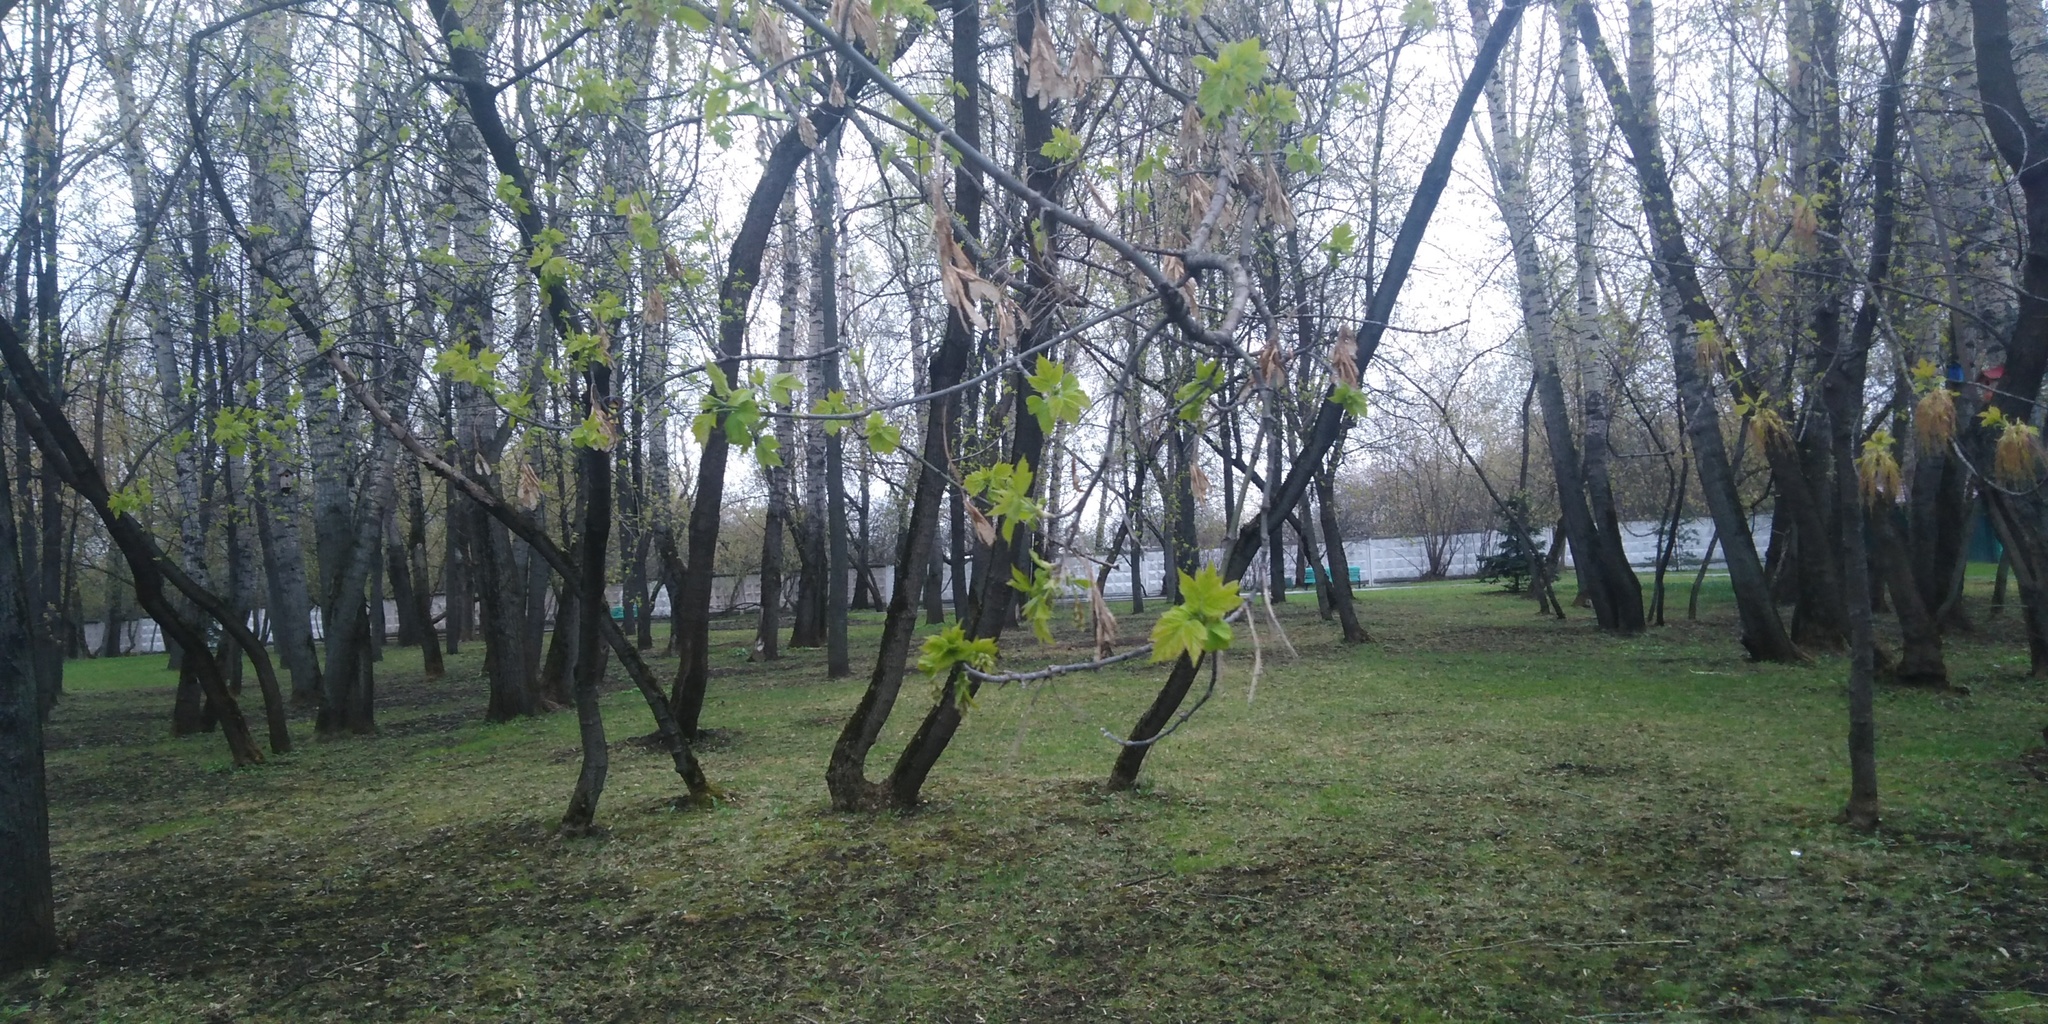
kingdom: Plantae
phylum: Tracheophyta
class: Magnoliopsida
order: Sapindales
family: Sapindaceae
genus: Acer
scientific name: Acer negundo
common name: Ashleaf maple
